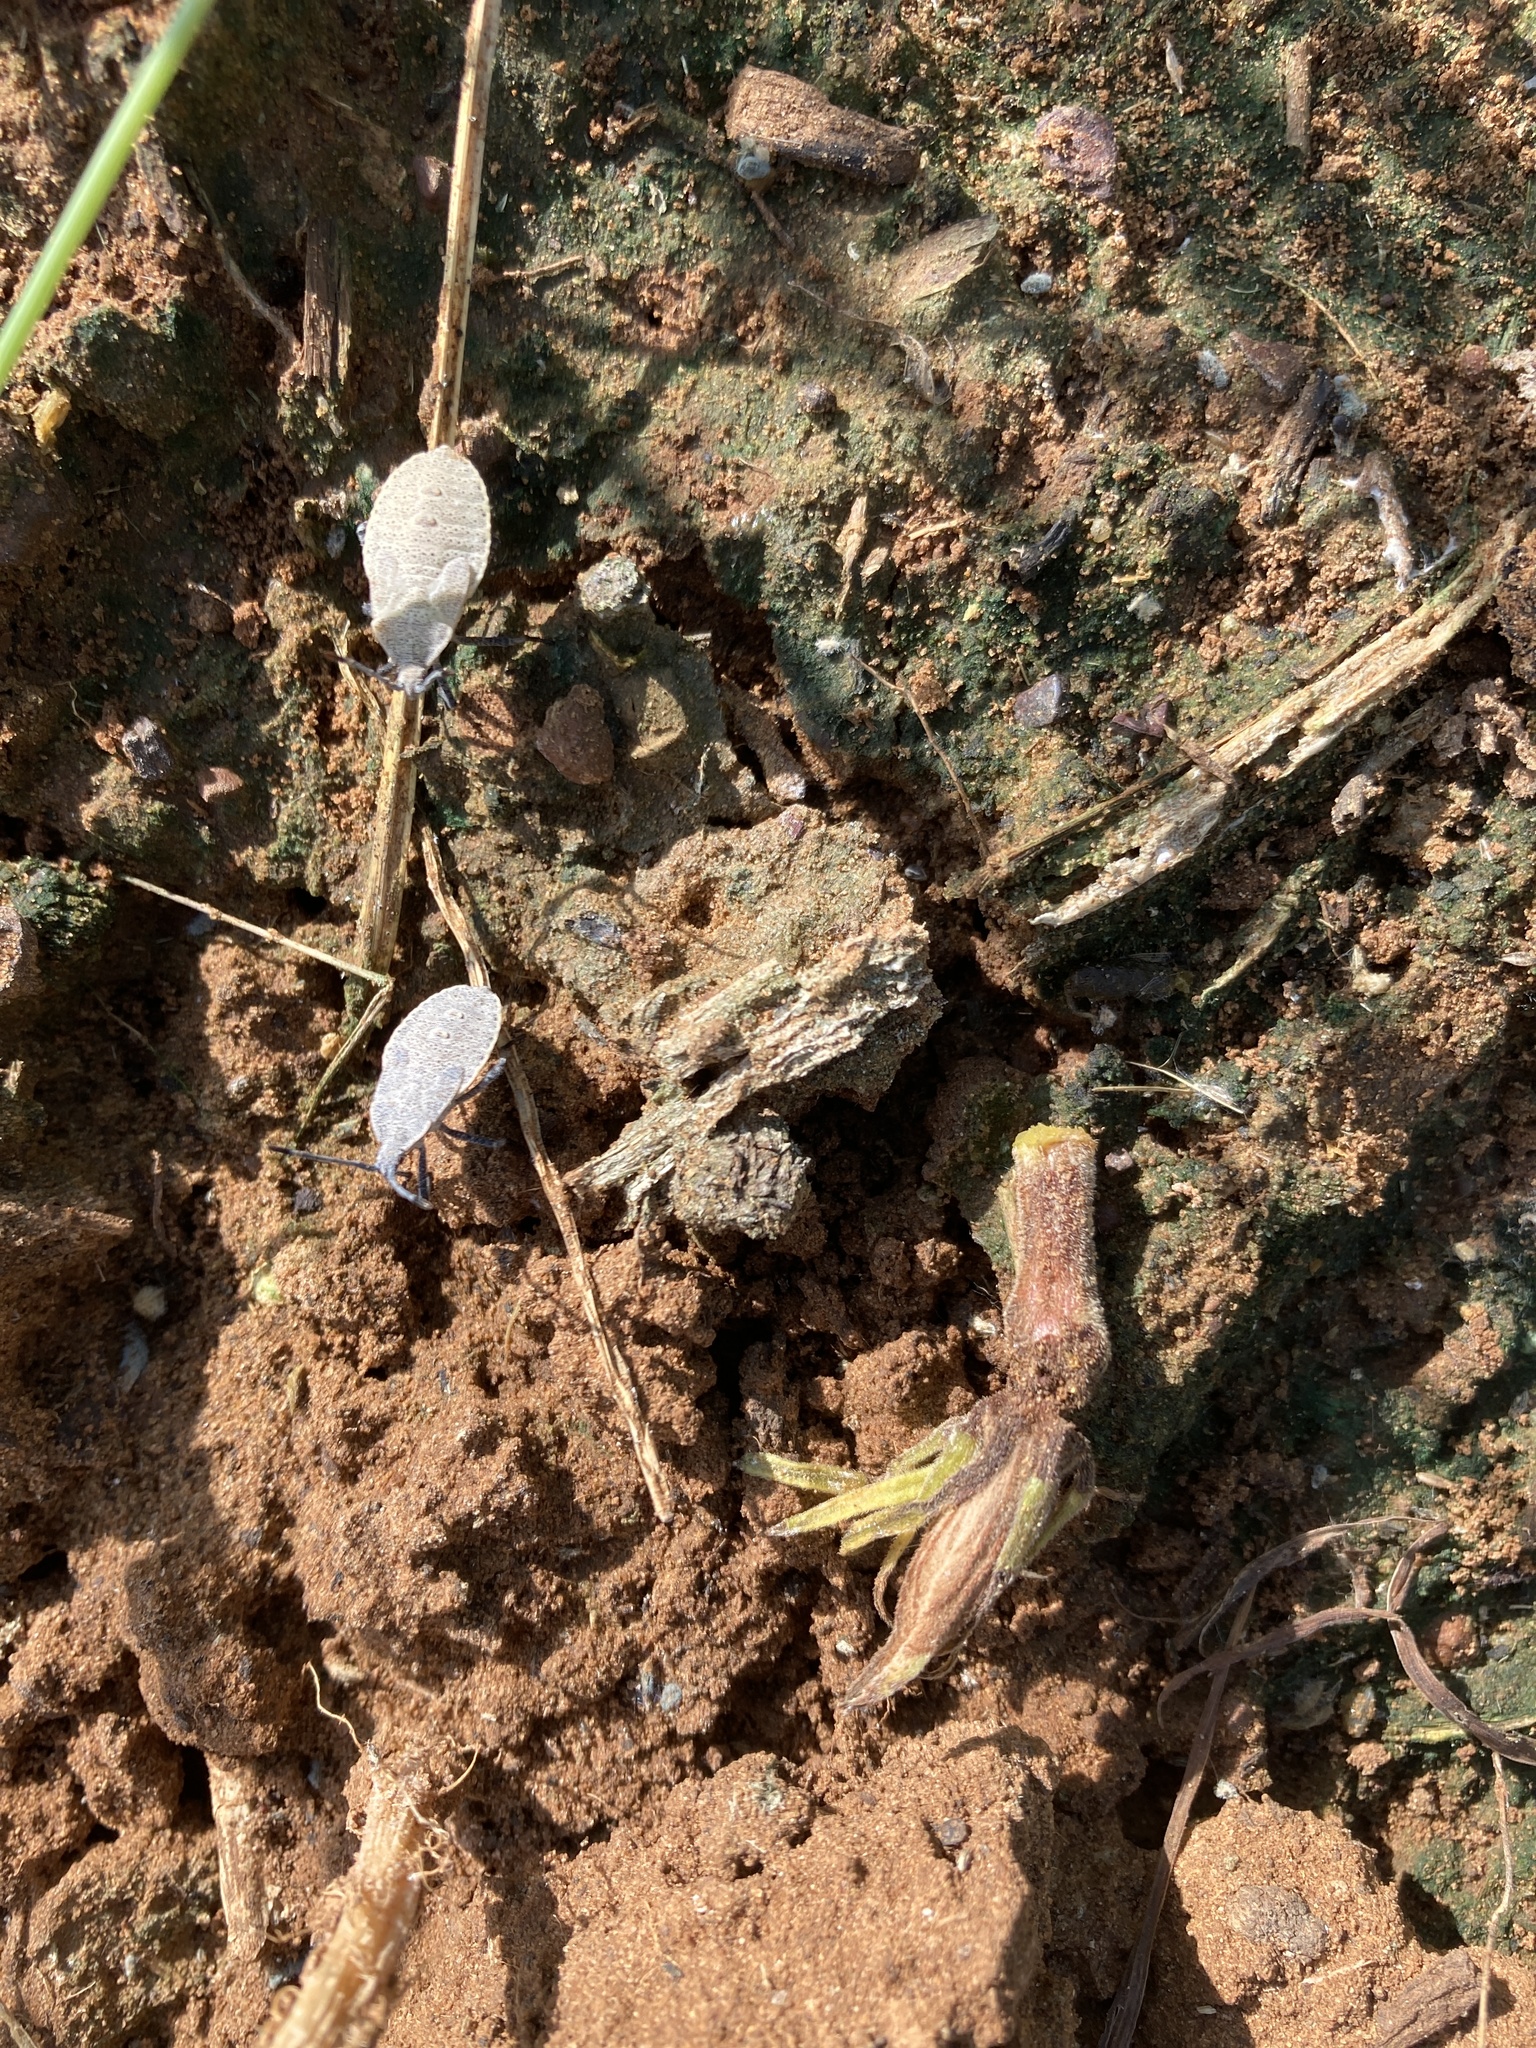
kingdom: Animalia
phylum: Arthropoda
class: Insecta
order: Hemiptera
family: Coreidae
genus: Anasa
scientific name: Anasa tristis
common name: Squash bug
